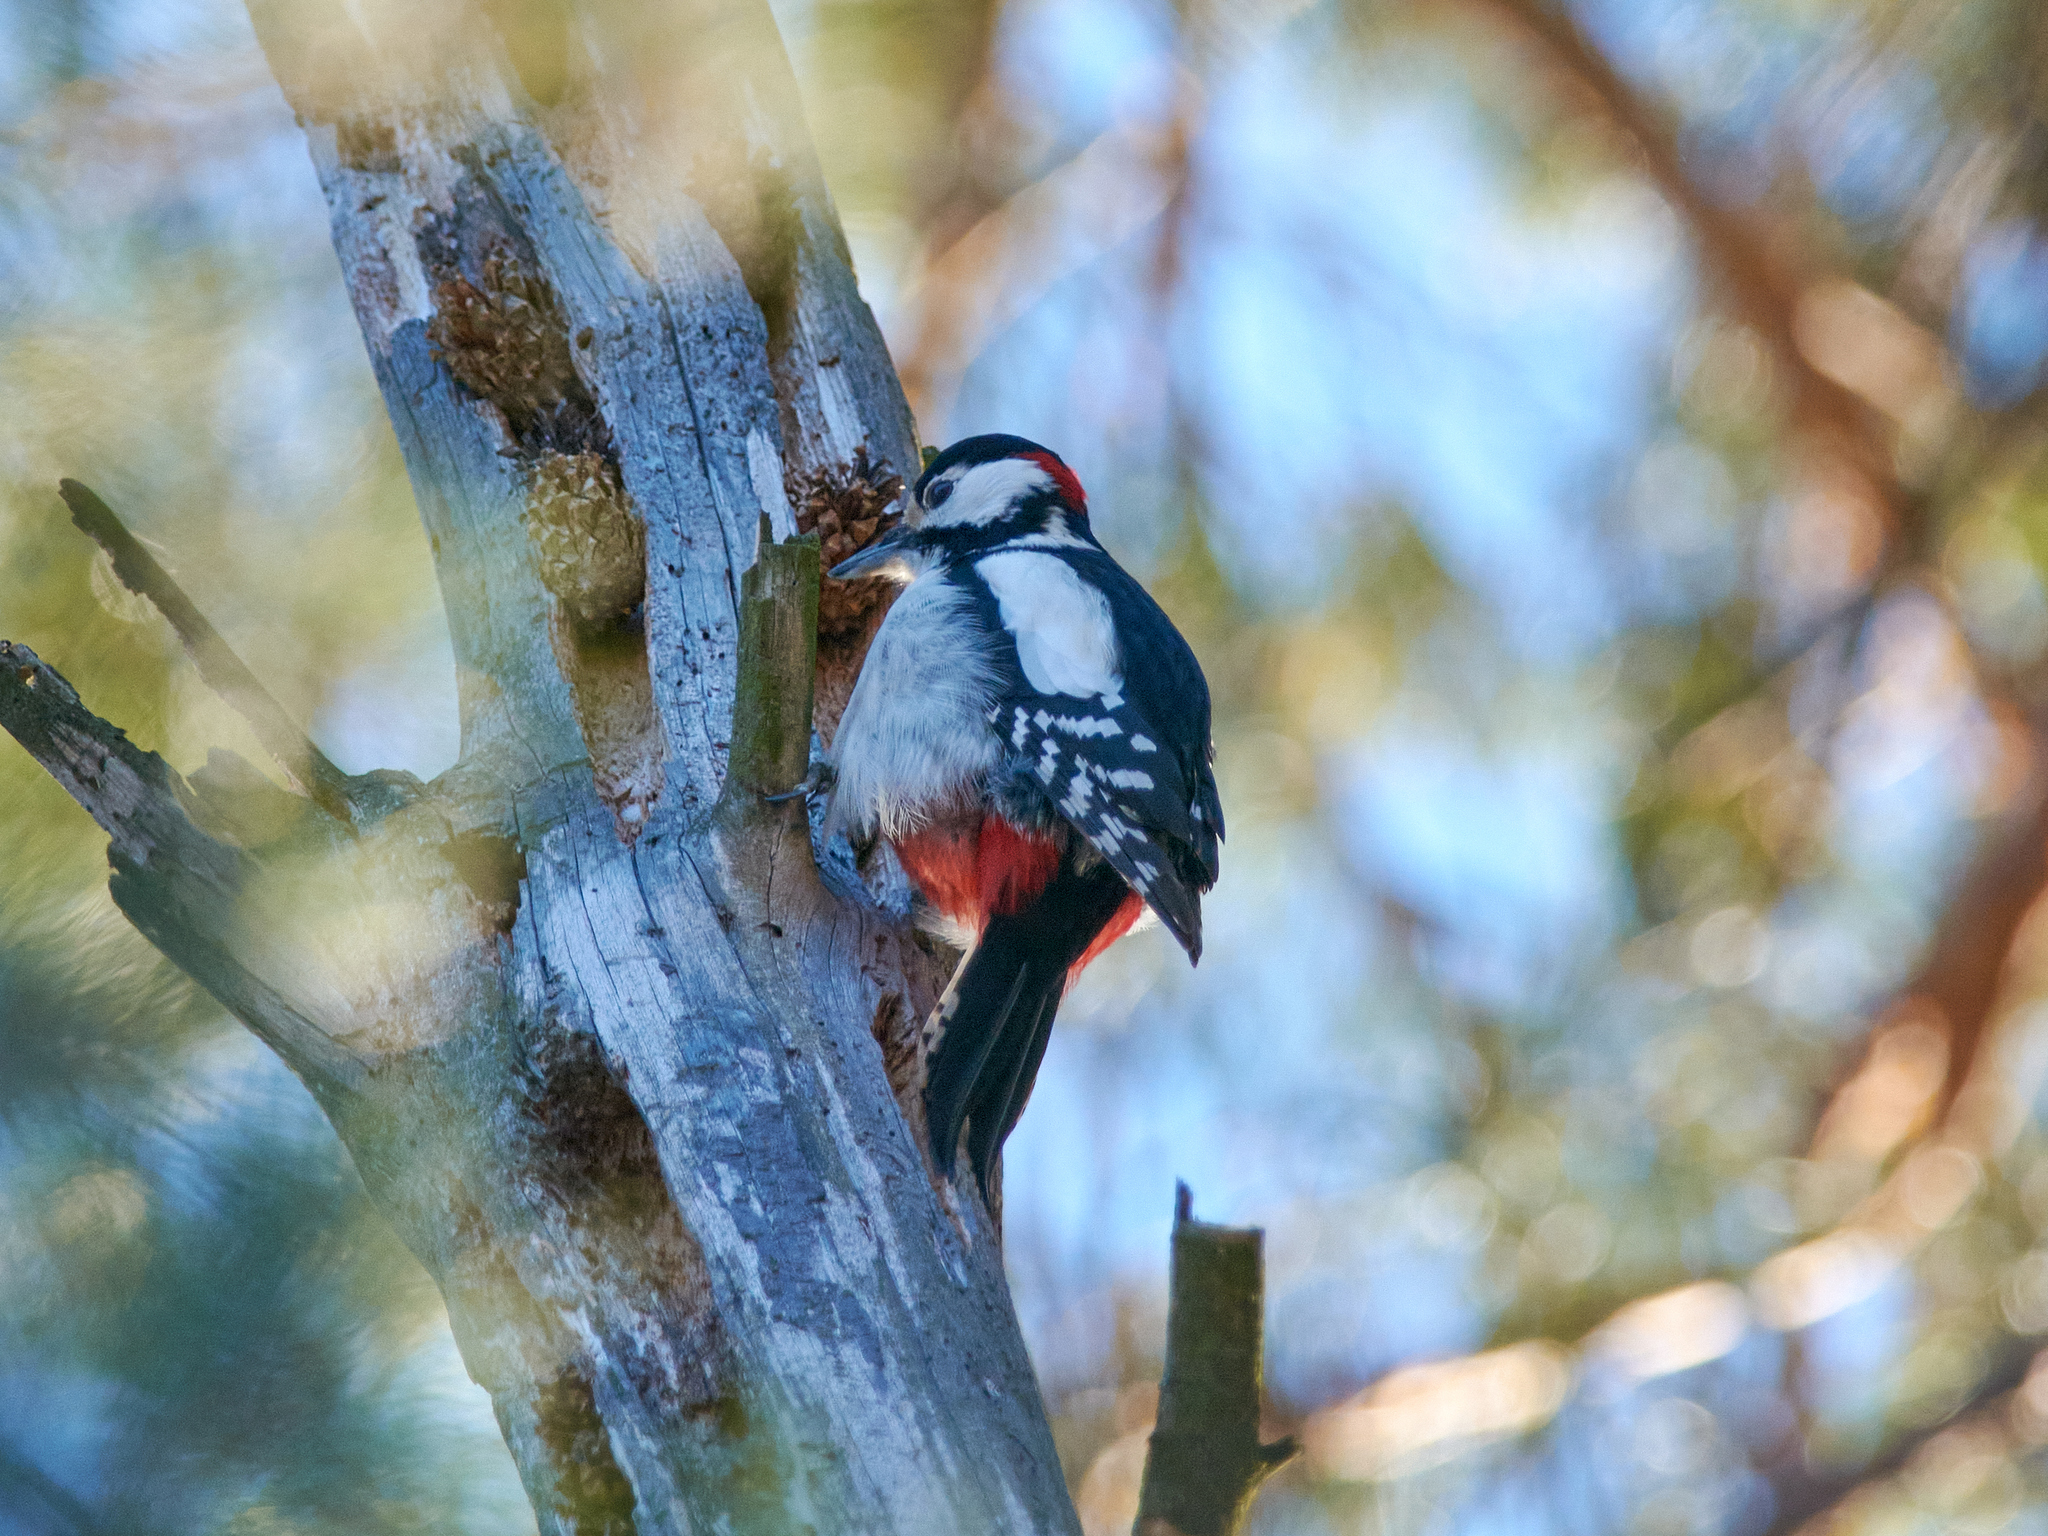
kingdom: Animalia
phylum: Chordata
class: Aves
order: Piciformes
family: Picidae
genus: Dendrocopos
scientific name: Dendrocopos major
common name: Great spotted woodpecker
